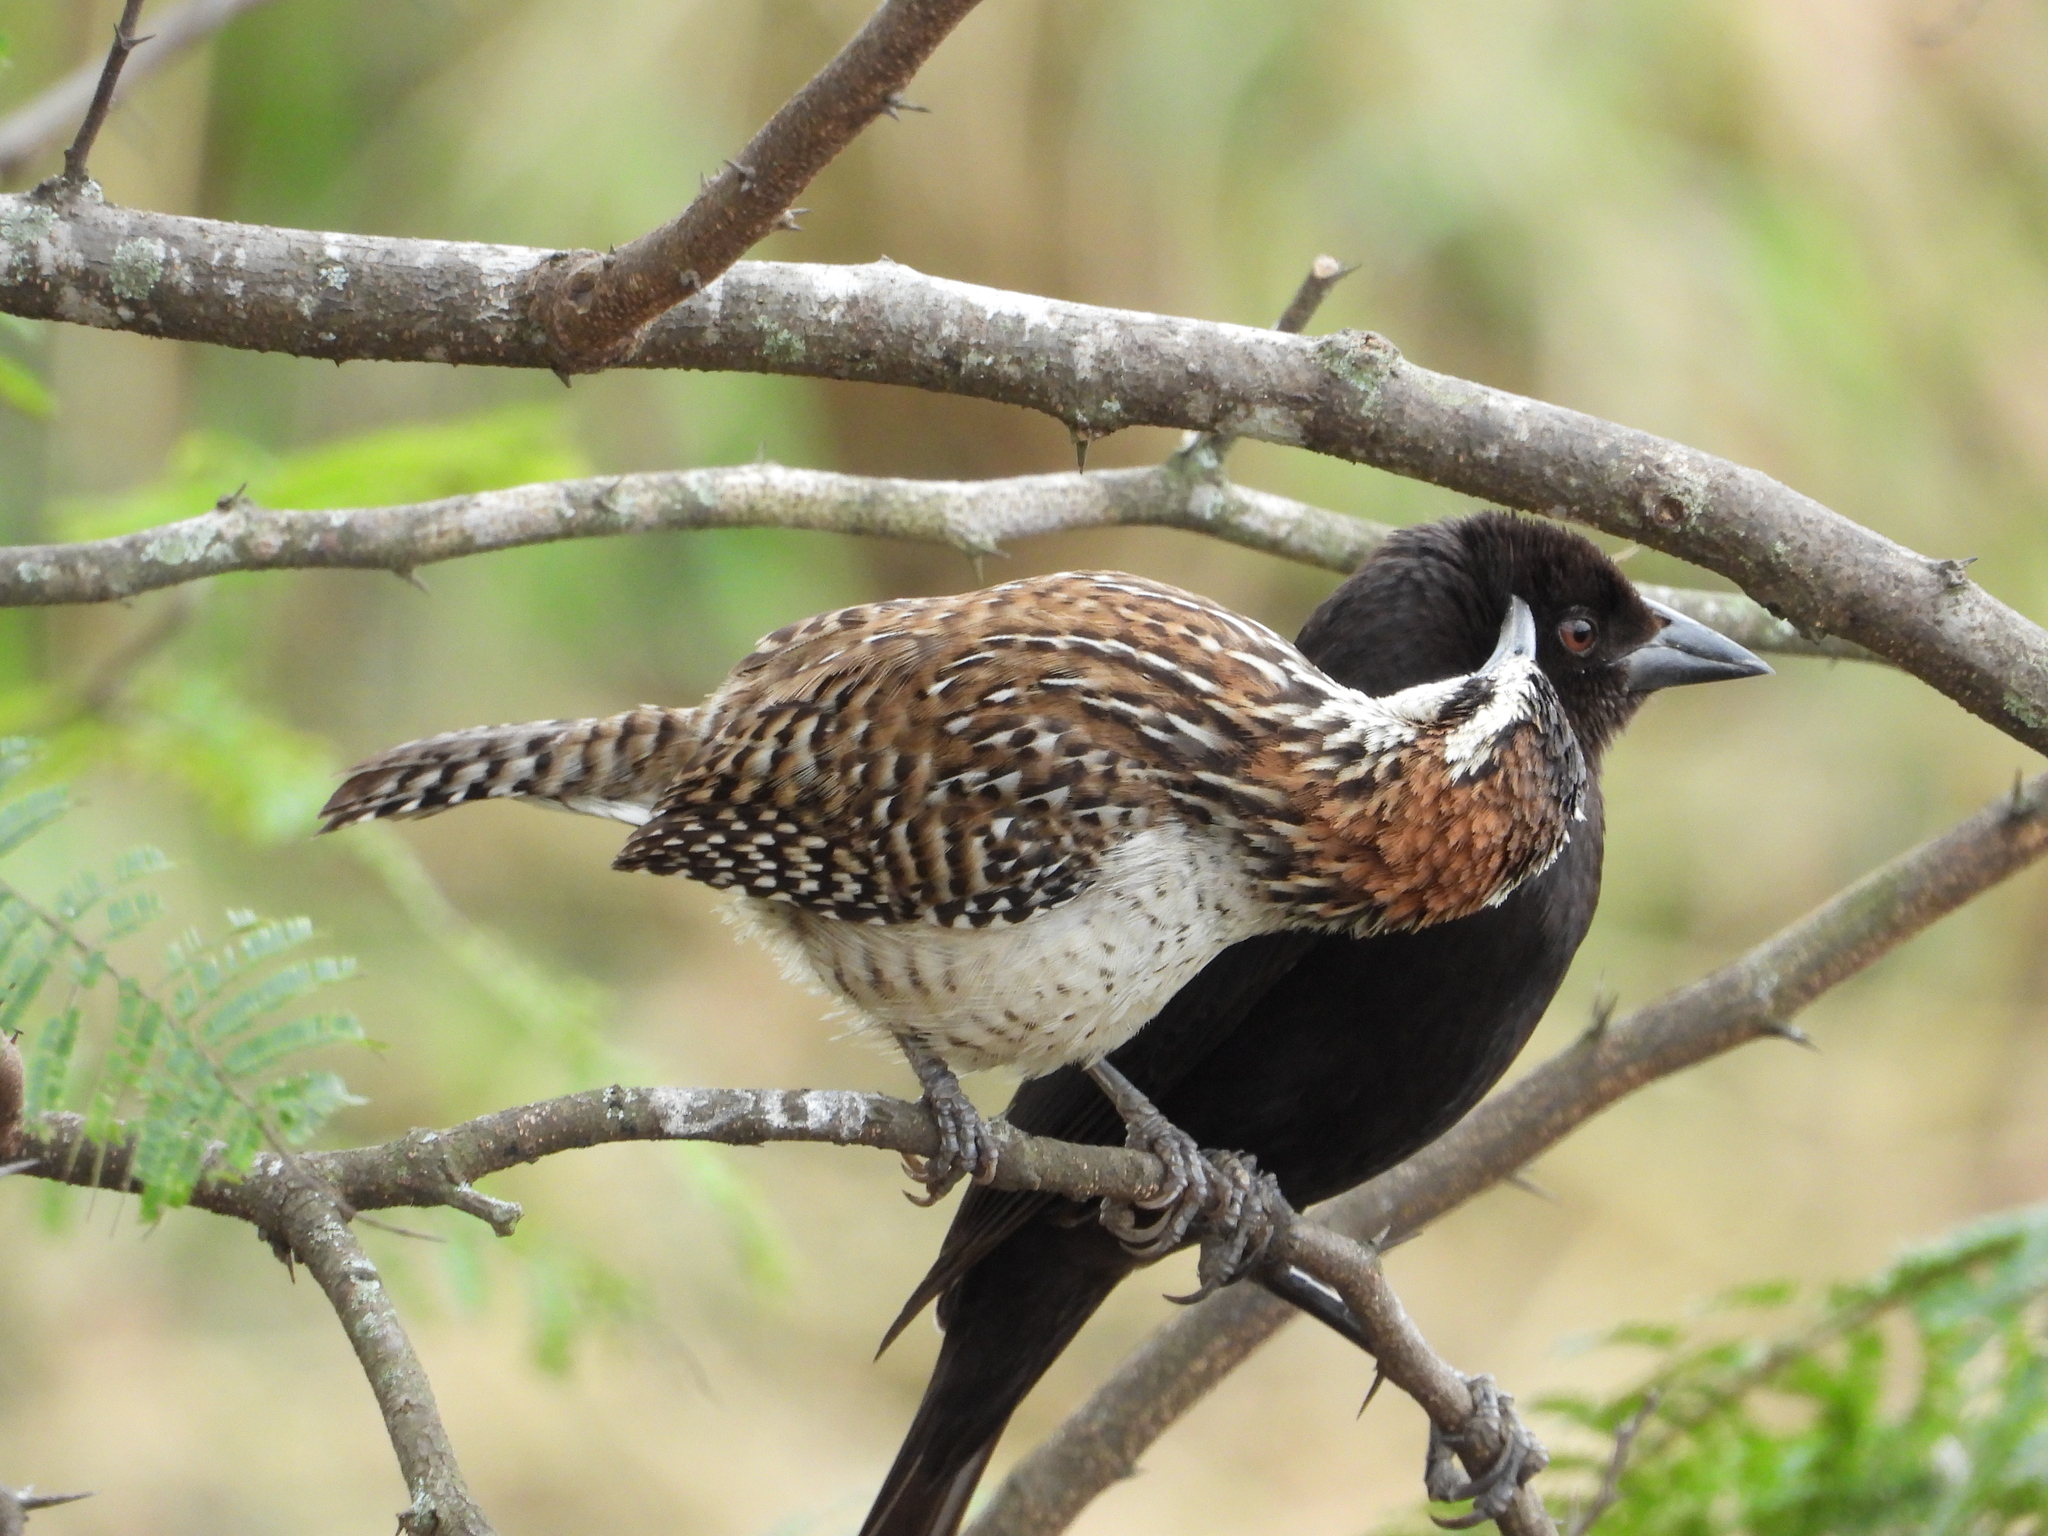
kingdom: Animalia
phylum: Chordata
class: Aves
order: Passeriformes
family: Troglodytidae
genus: Campylorhynchus
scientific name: Campylorhynchus rufinucha
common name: Rufous-naped wren
